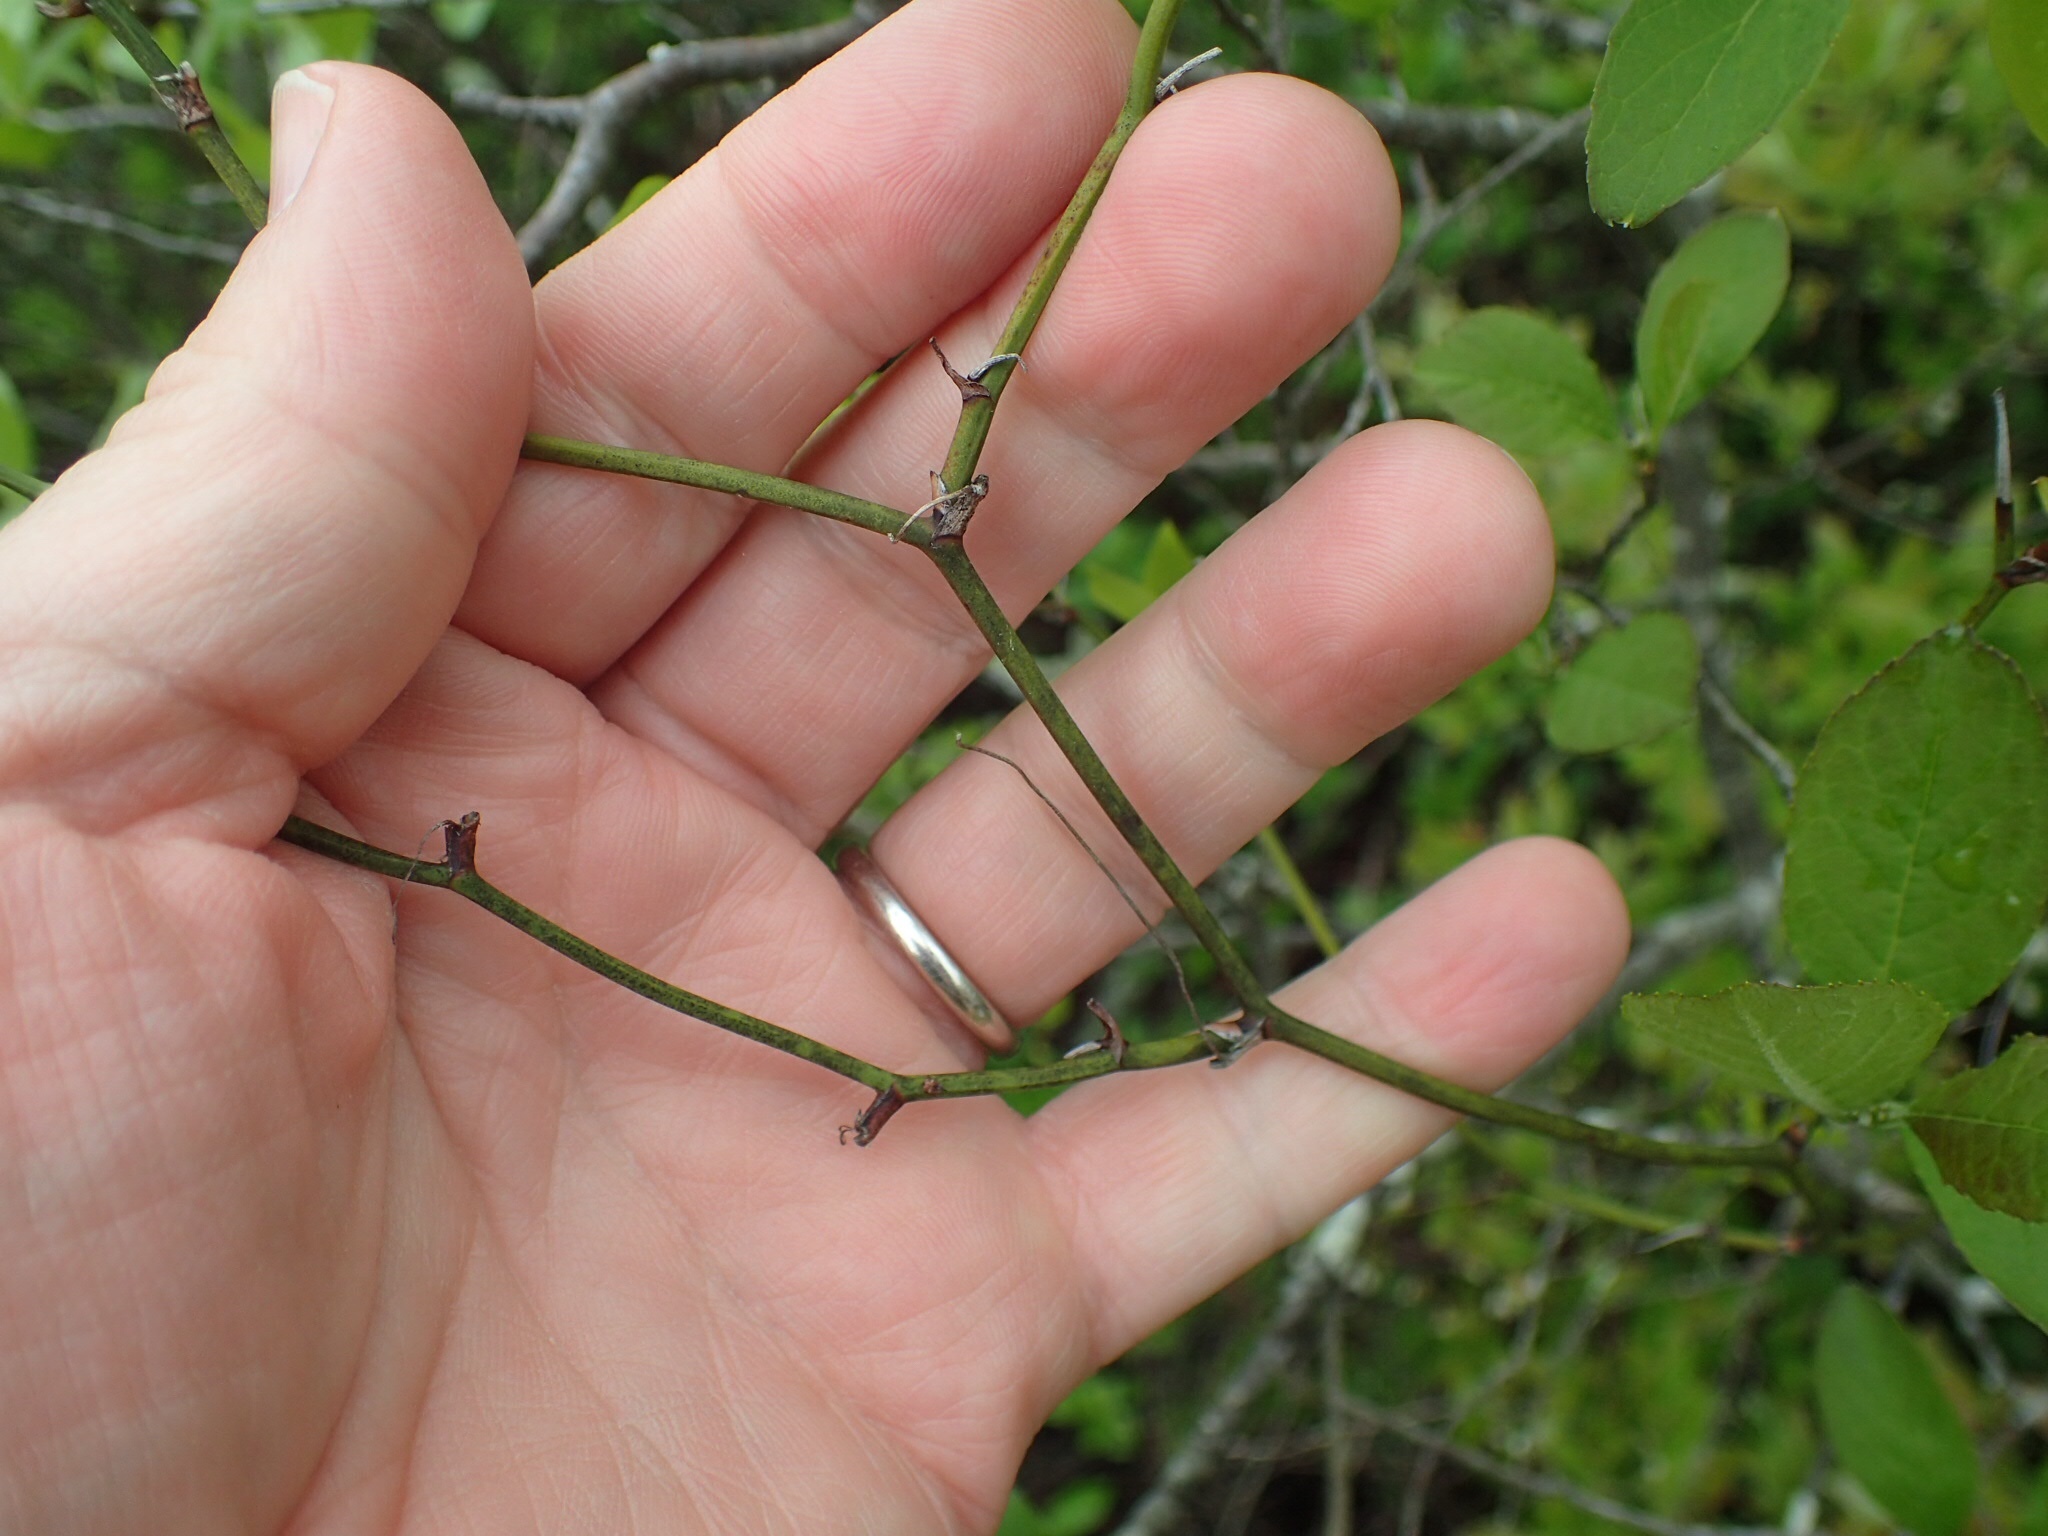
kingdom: Plantae
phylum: Tracheophyta
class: Liliopsida
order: Liliales
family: Smilacaceae
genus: Smilax
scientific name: Smilax rotundifolia
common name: Bullbriar
